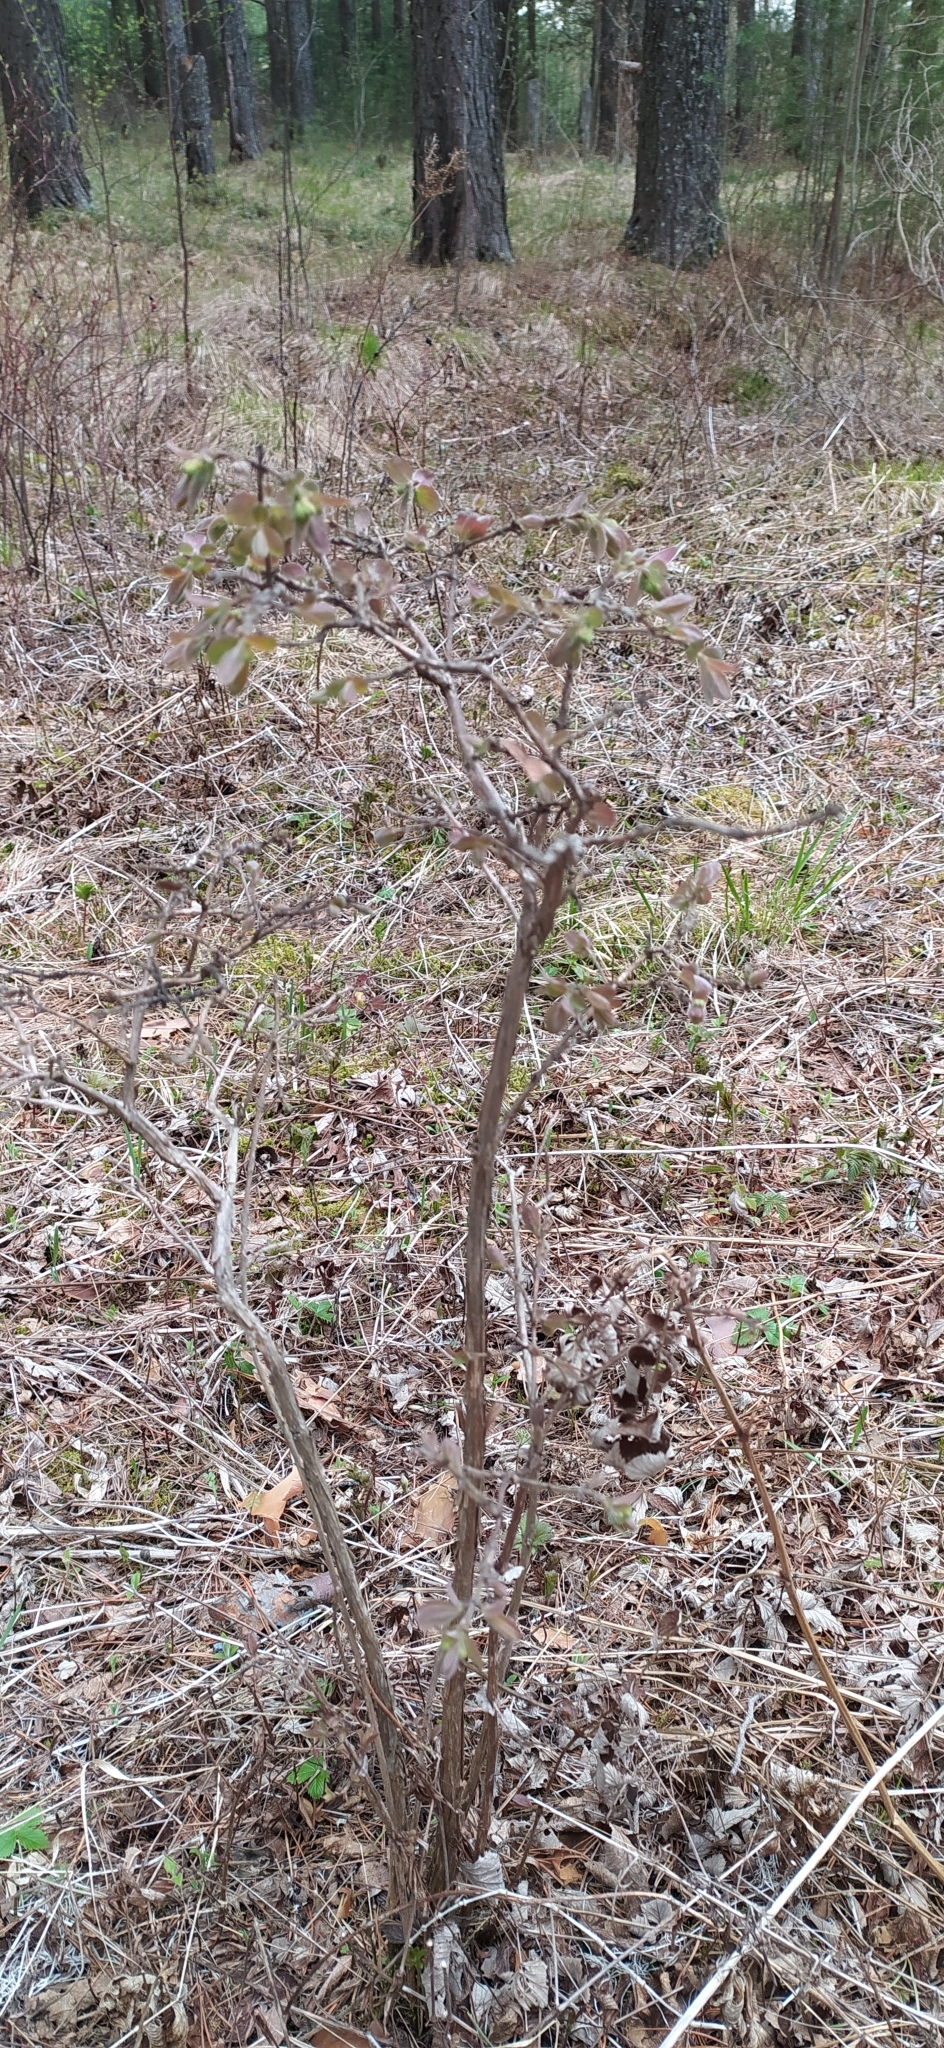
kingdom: Plantae
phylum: Tracheophyta
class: Magnoliopsida
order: Dipsacales
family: Caprifoliaceae
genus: Lonicera
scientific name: Lonicera caerulea
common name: Blue honeysuckle
